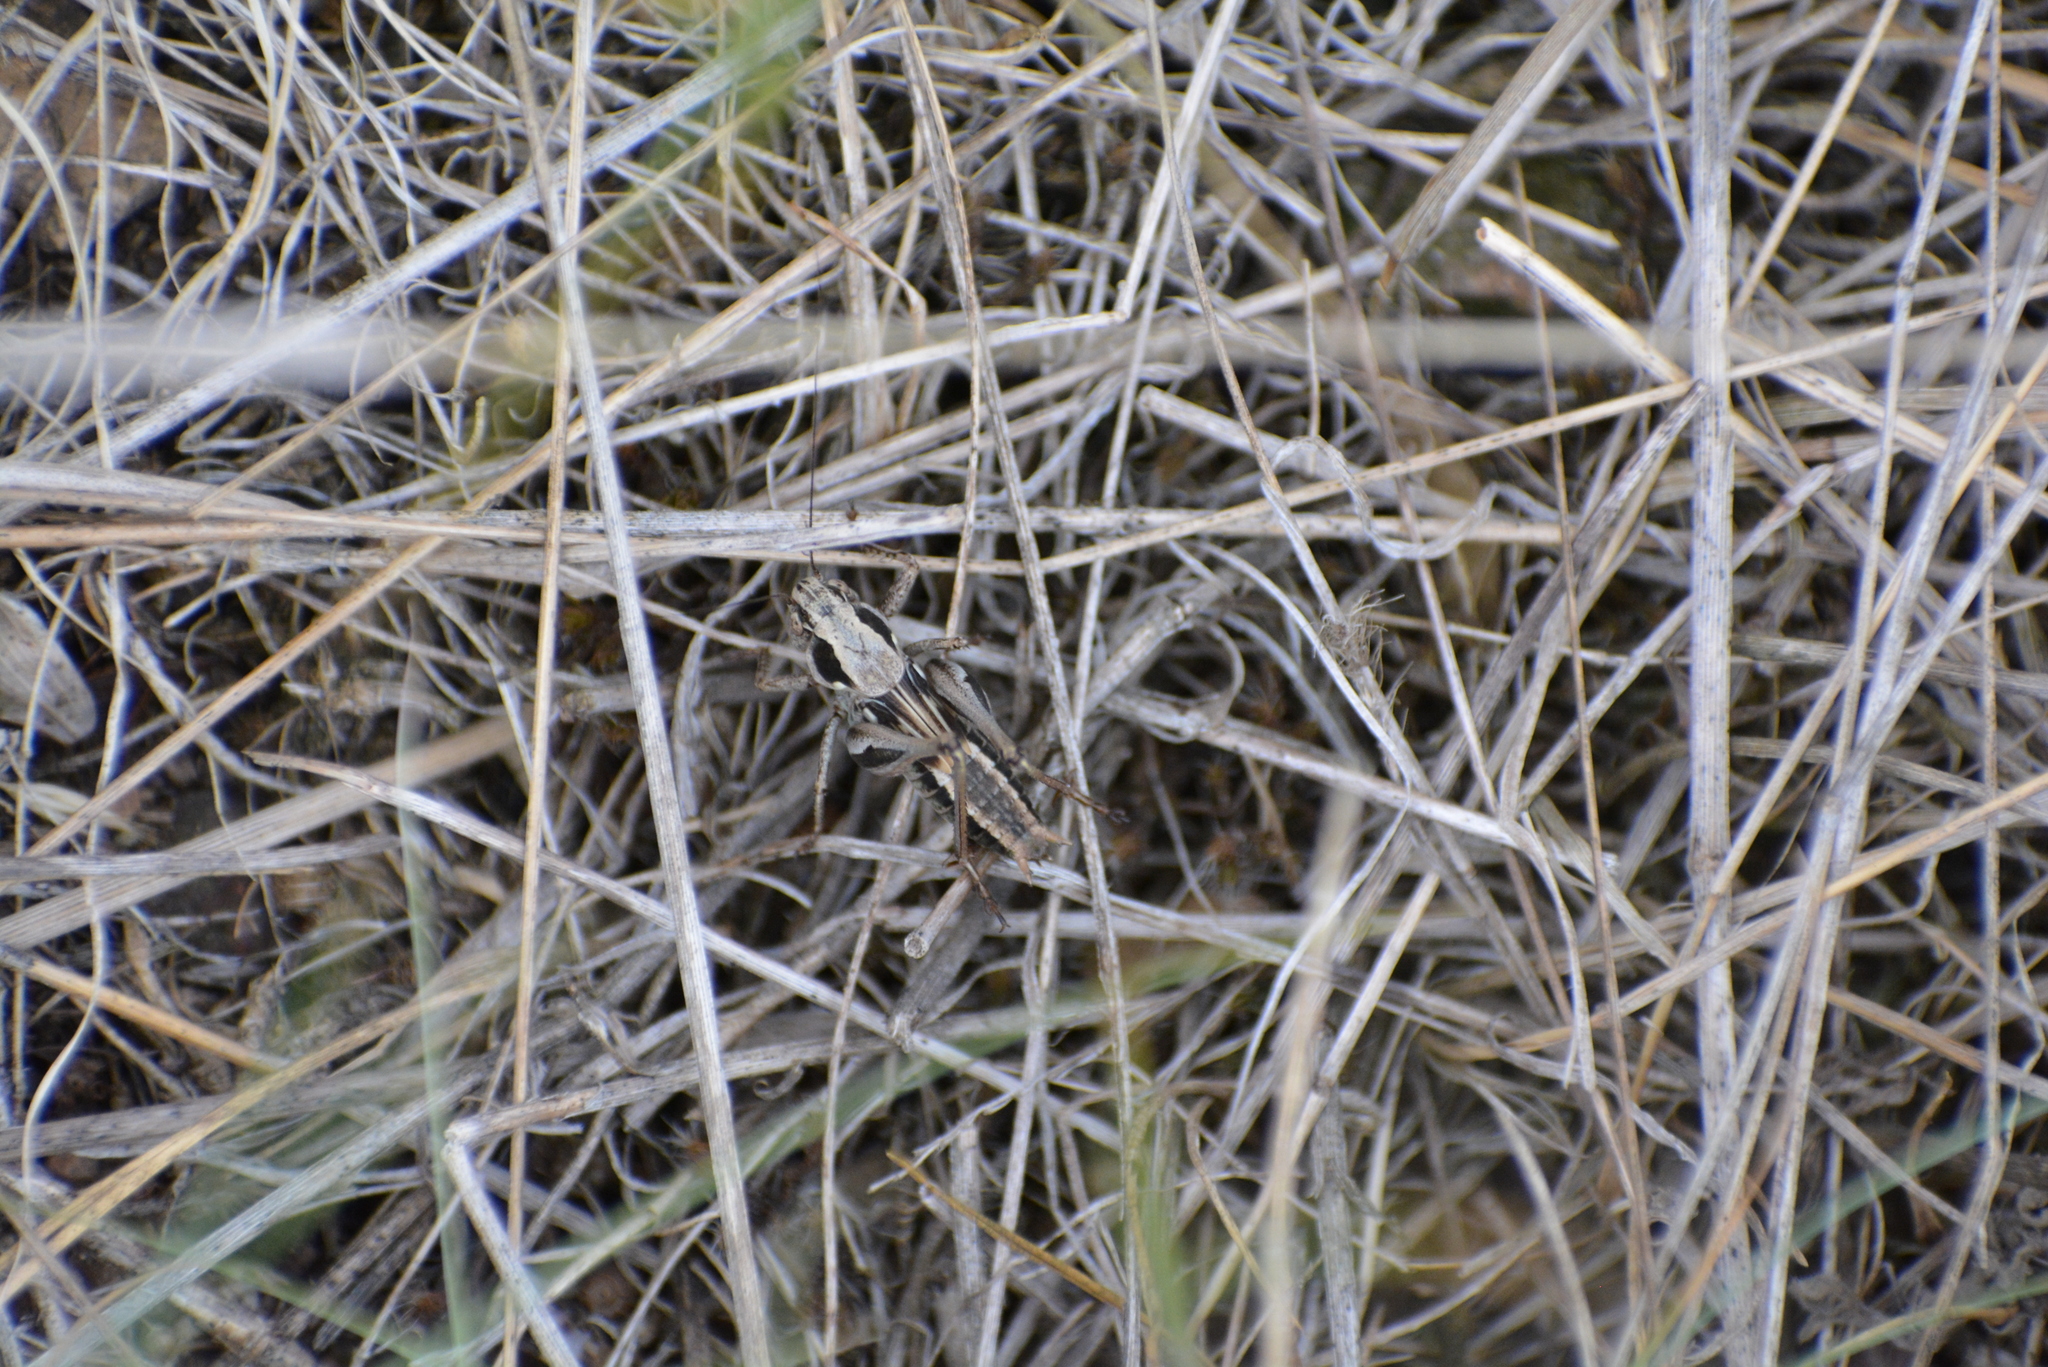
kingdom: Animalia
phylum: Arthropoda
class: Insecta
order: Orthoptera
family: Tettigoniidae
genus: Platycleis
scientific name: Platycleis albopunctata
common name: Grey bush-cricket
